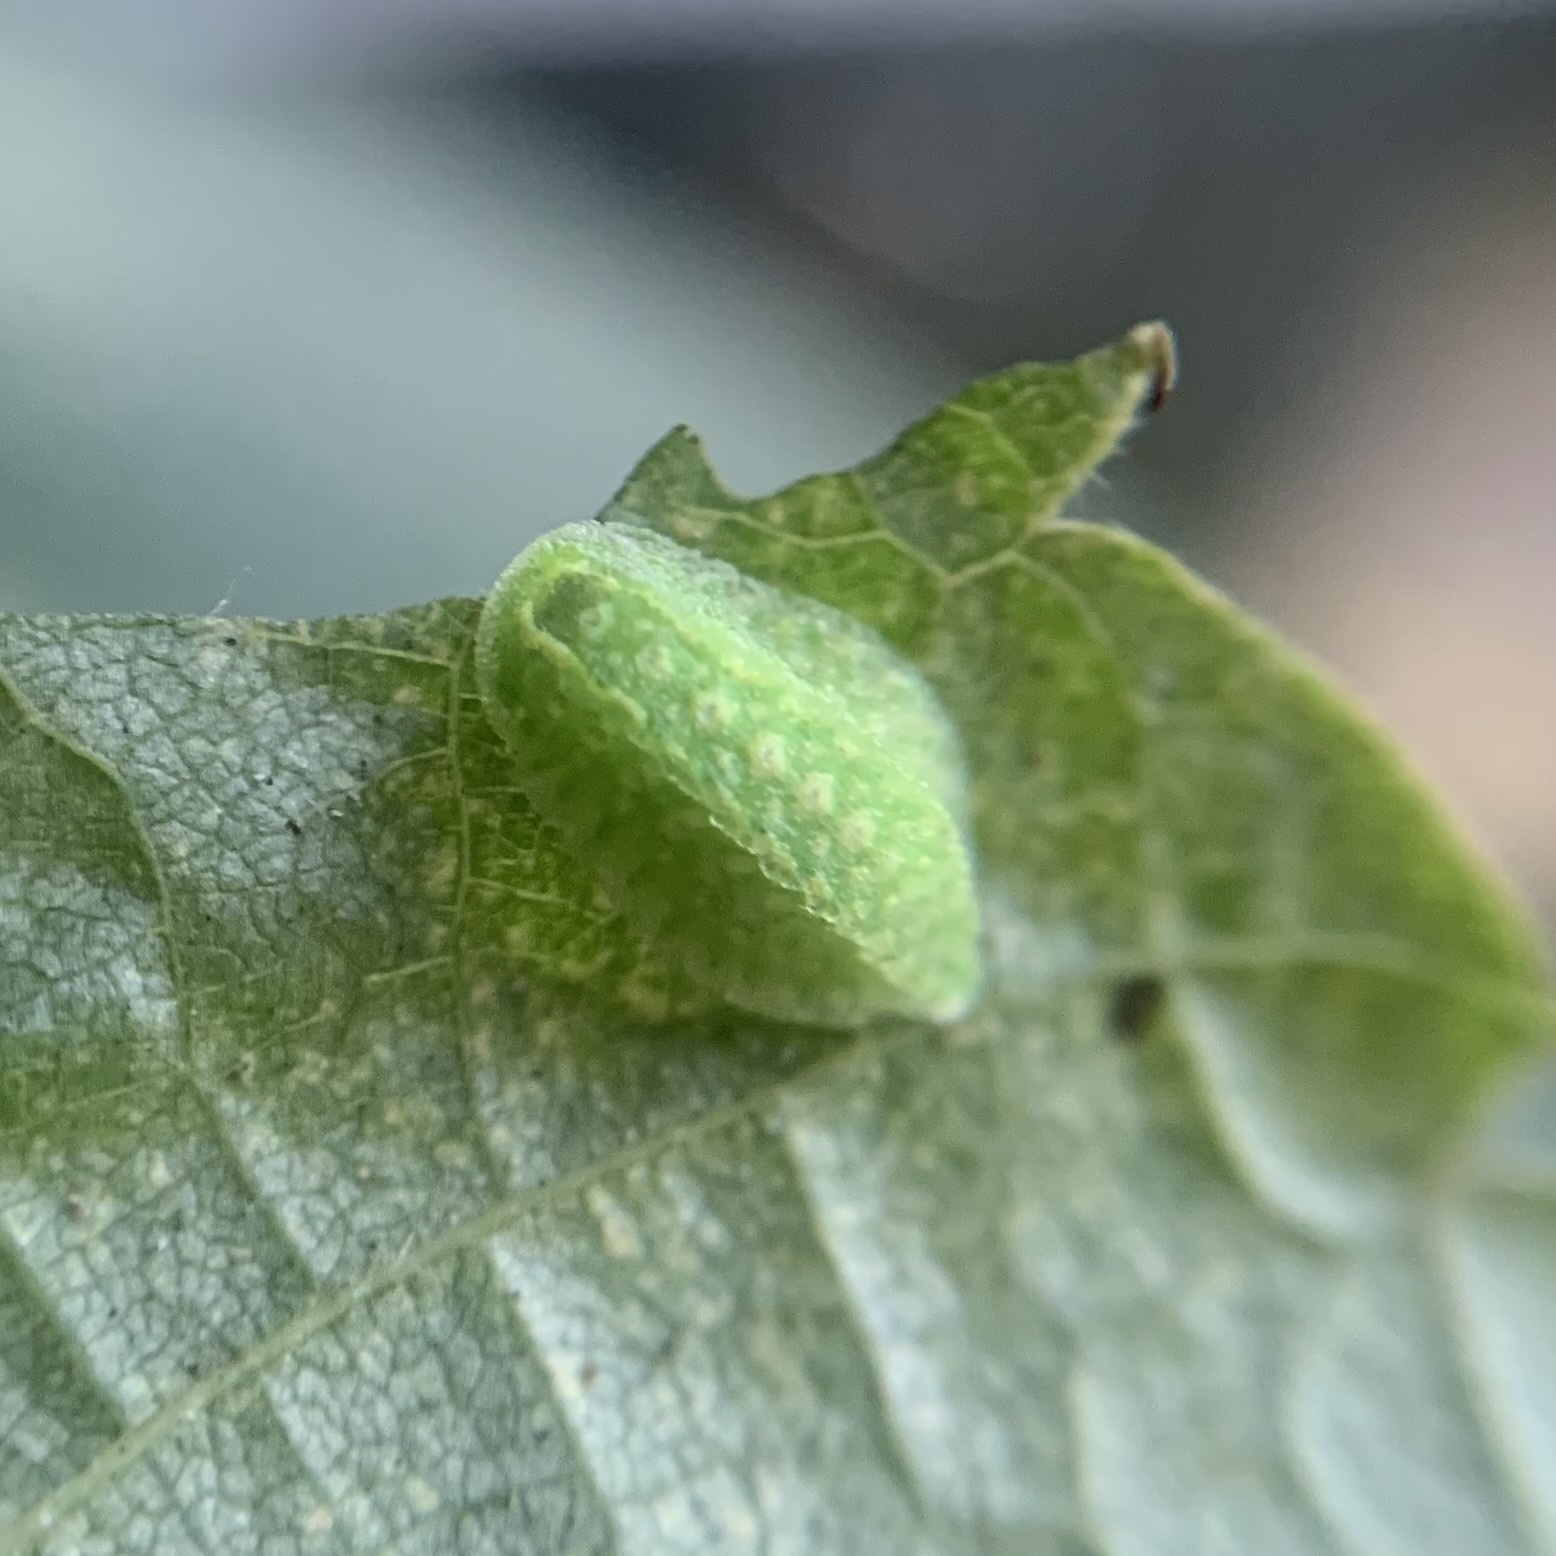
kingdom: Animalia
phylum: Arthropoda
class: Insecta
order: Lepidoptera
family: Limacodidae
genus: Lithacodes
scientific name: Lithacodes fasciola
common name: Yellow-shouldered slug moth
